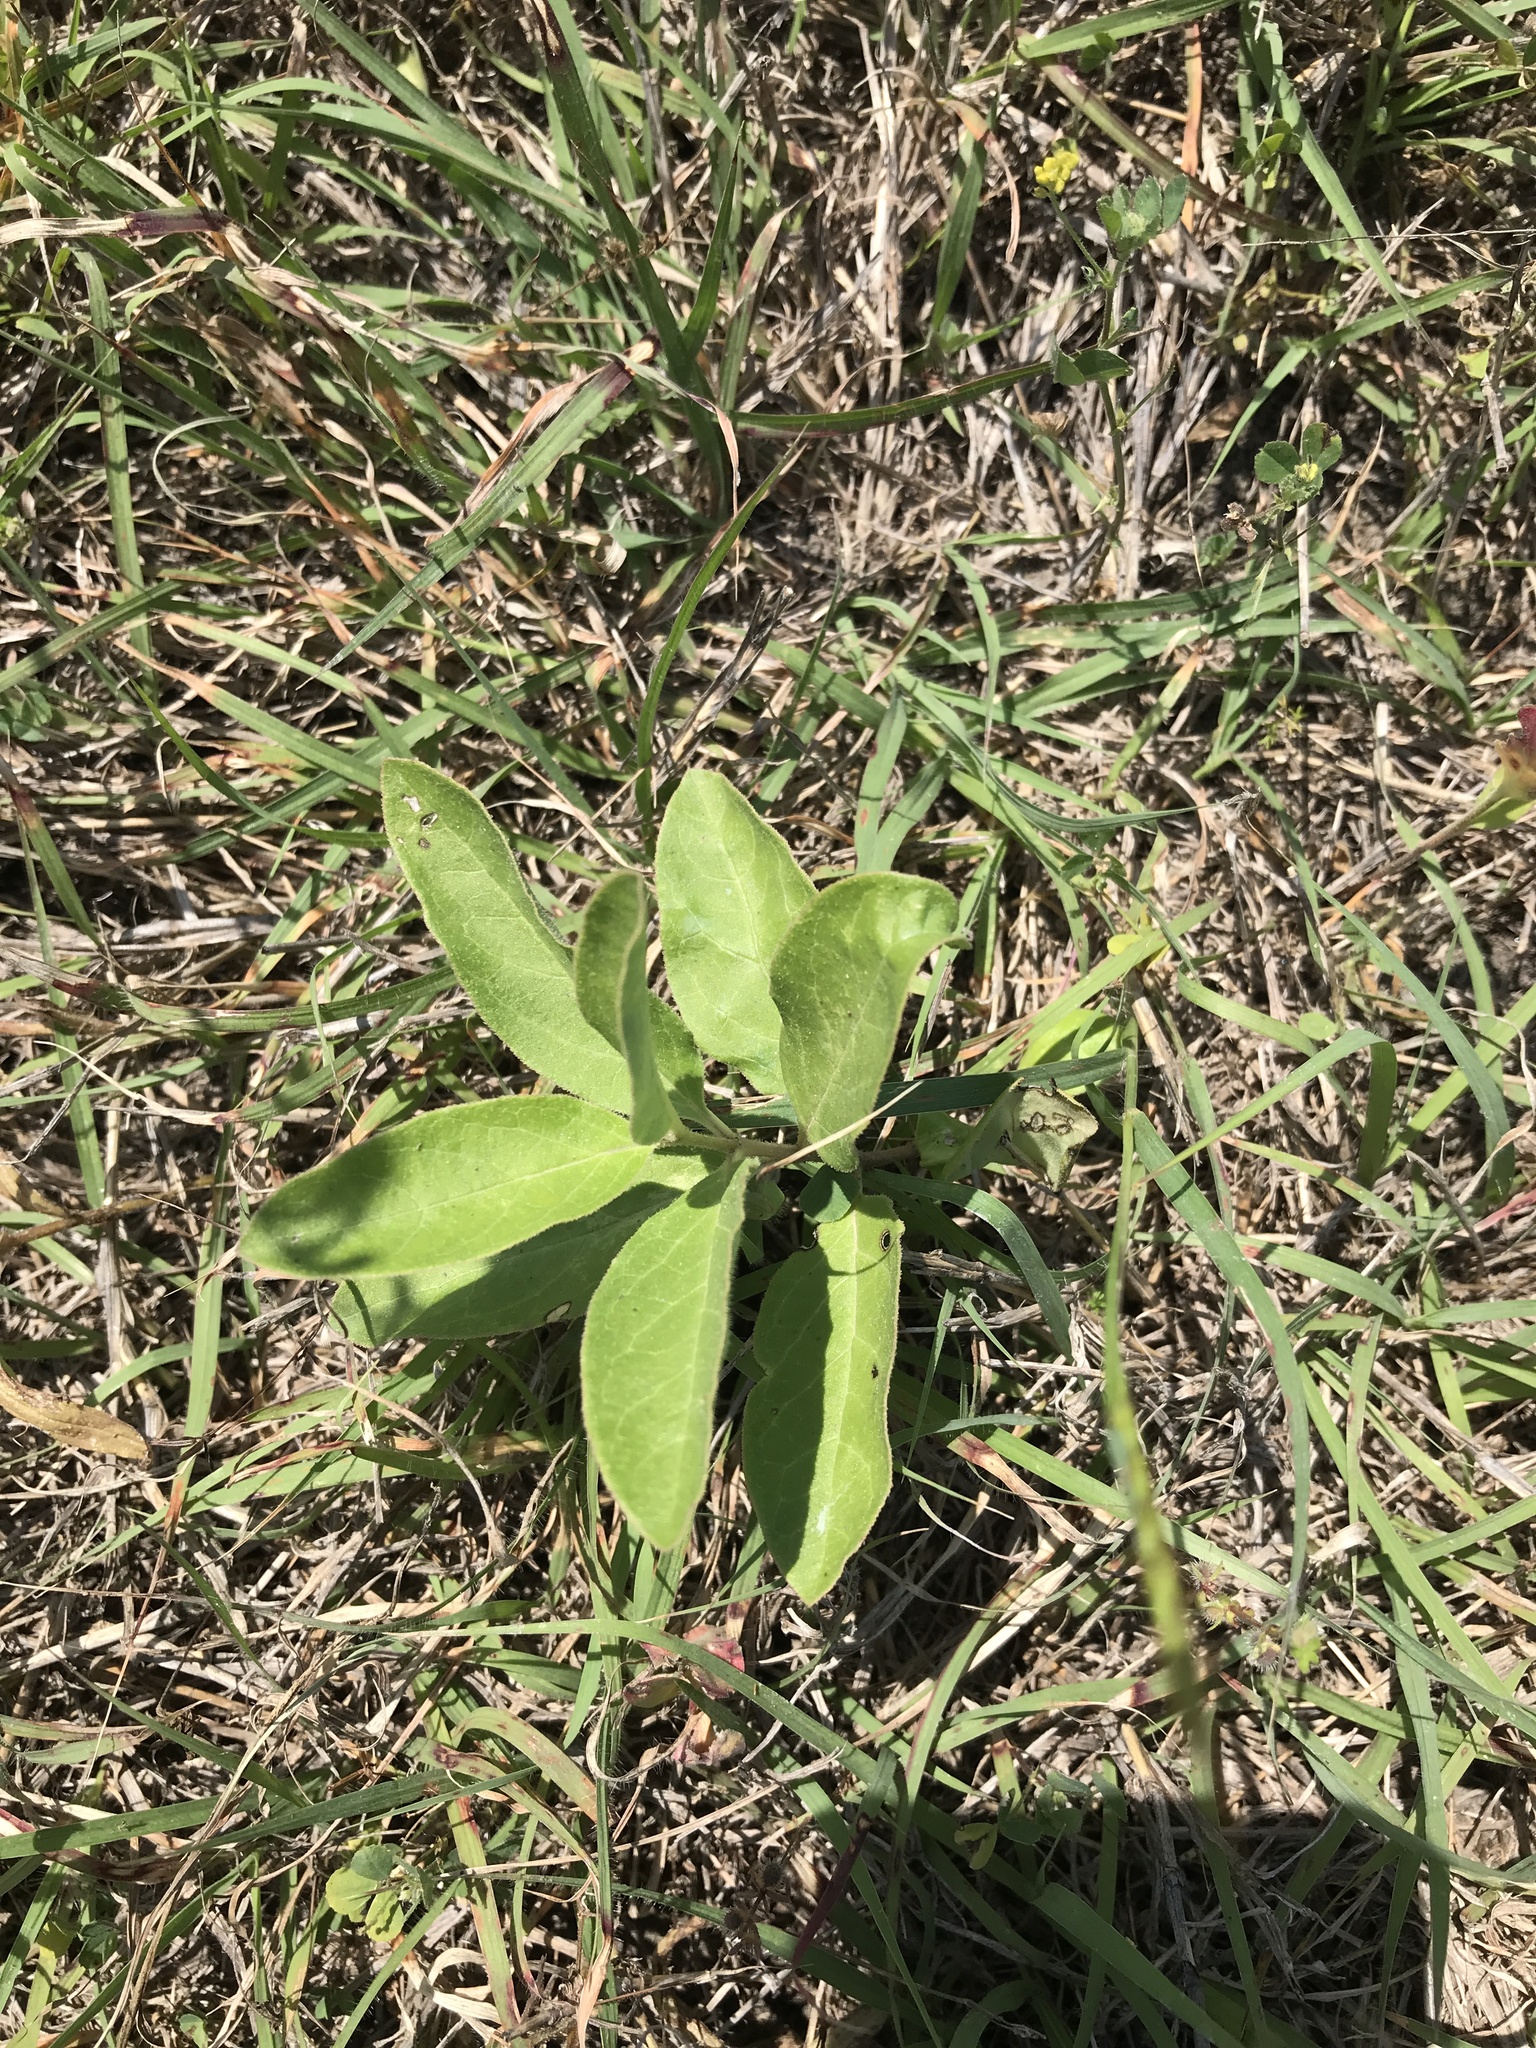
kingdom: Plantae
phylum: Tracheophyta
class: Magnoliopsida
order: Gentianales
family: Apocynaceae
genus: Asclepias
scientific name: Asclepias oenotheroides
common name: Zizotes milkweed
